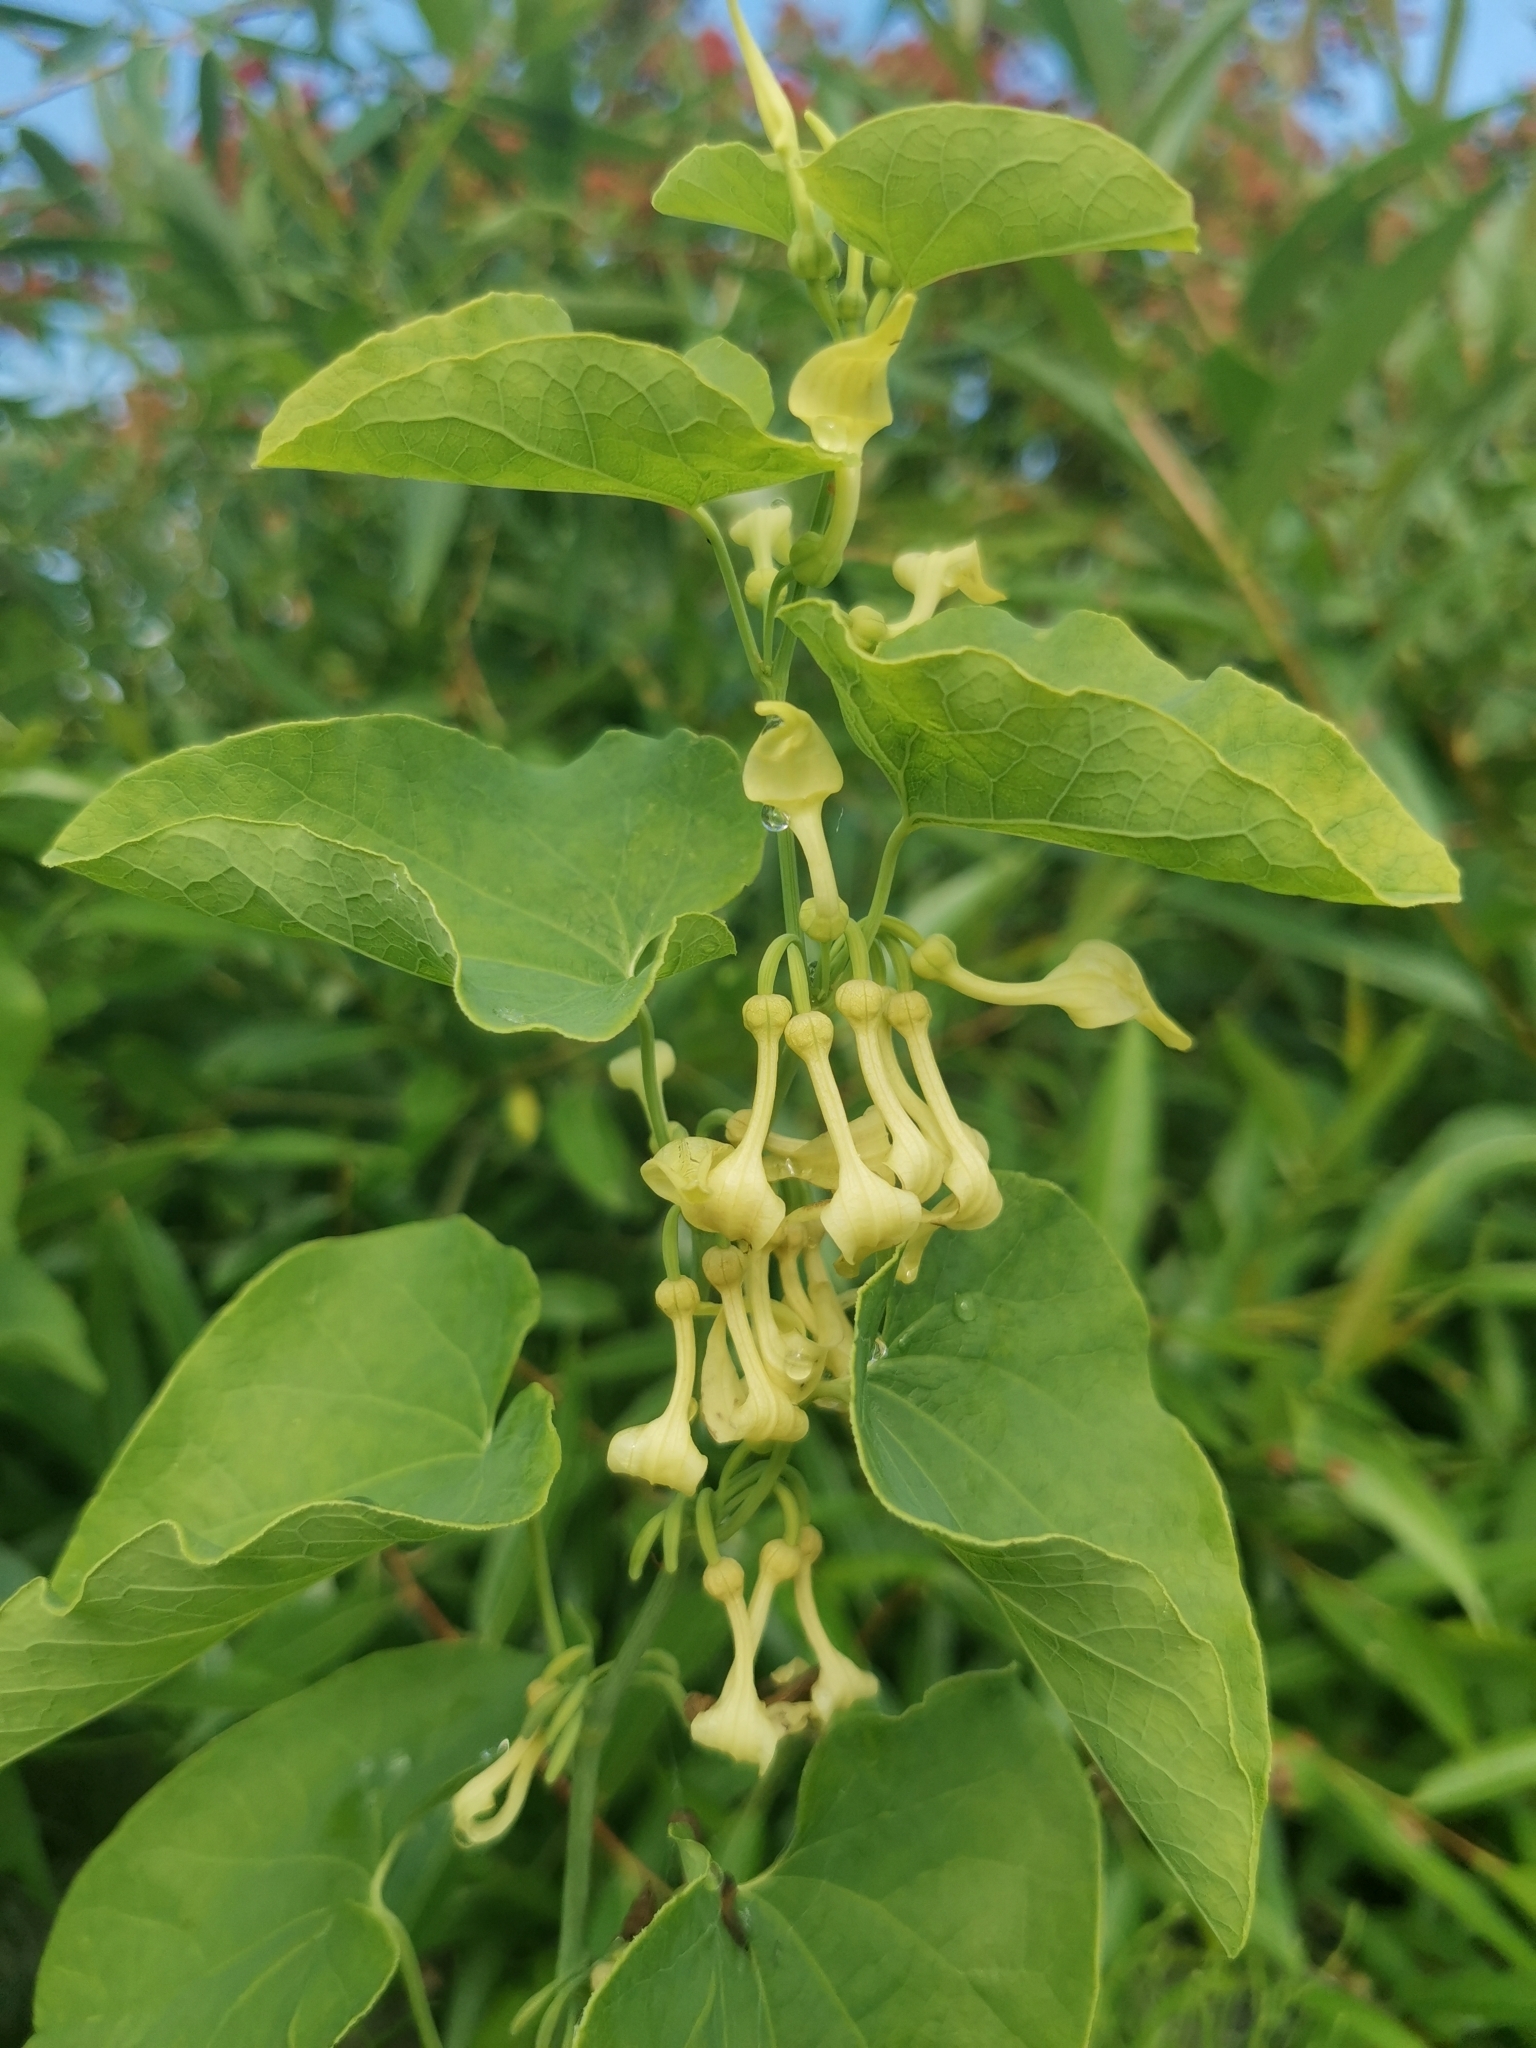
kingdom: Plantae
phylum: Tracheophyta
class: Magnoliopsida
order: Piperales
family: Aristolochiaceae
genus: Aristolochia
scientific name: Aristolochia clematitis
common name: Birthwort
